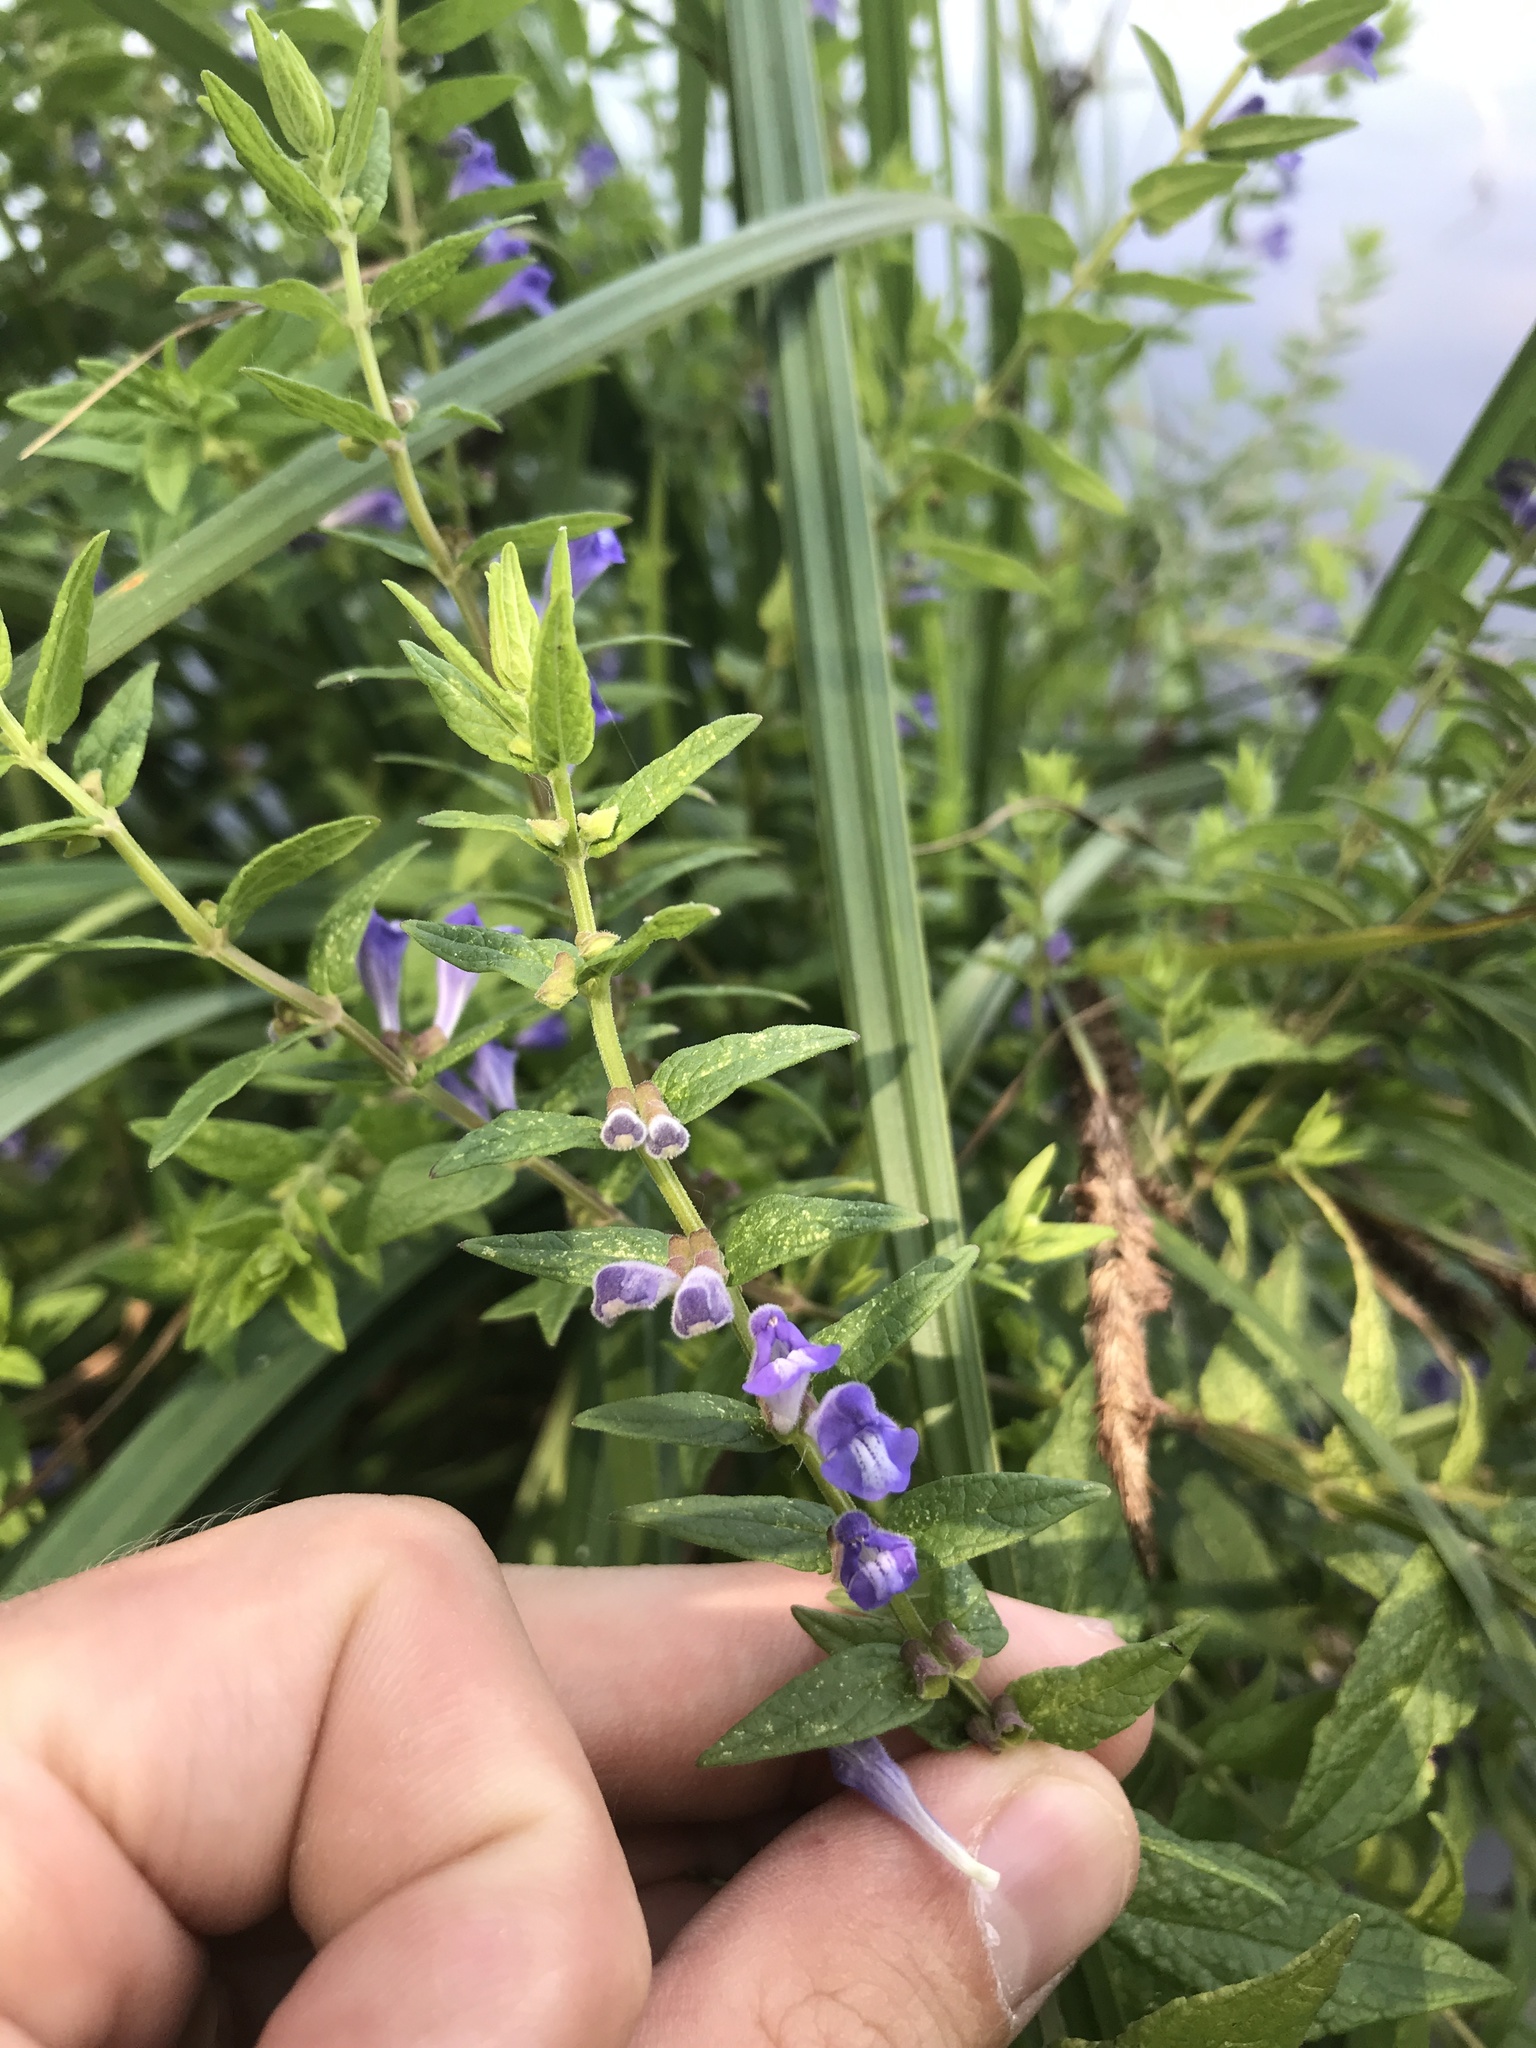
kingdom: Plantae
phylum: Tracheophyta
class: Magnoliopsida
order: Lamiales
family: Lamiaceae
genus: Scutellaria
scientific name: Scutellaria galericulata
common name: Skullcap
